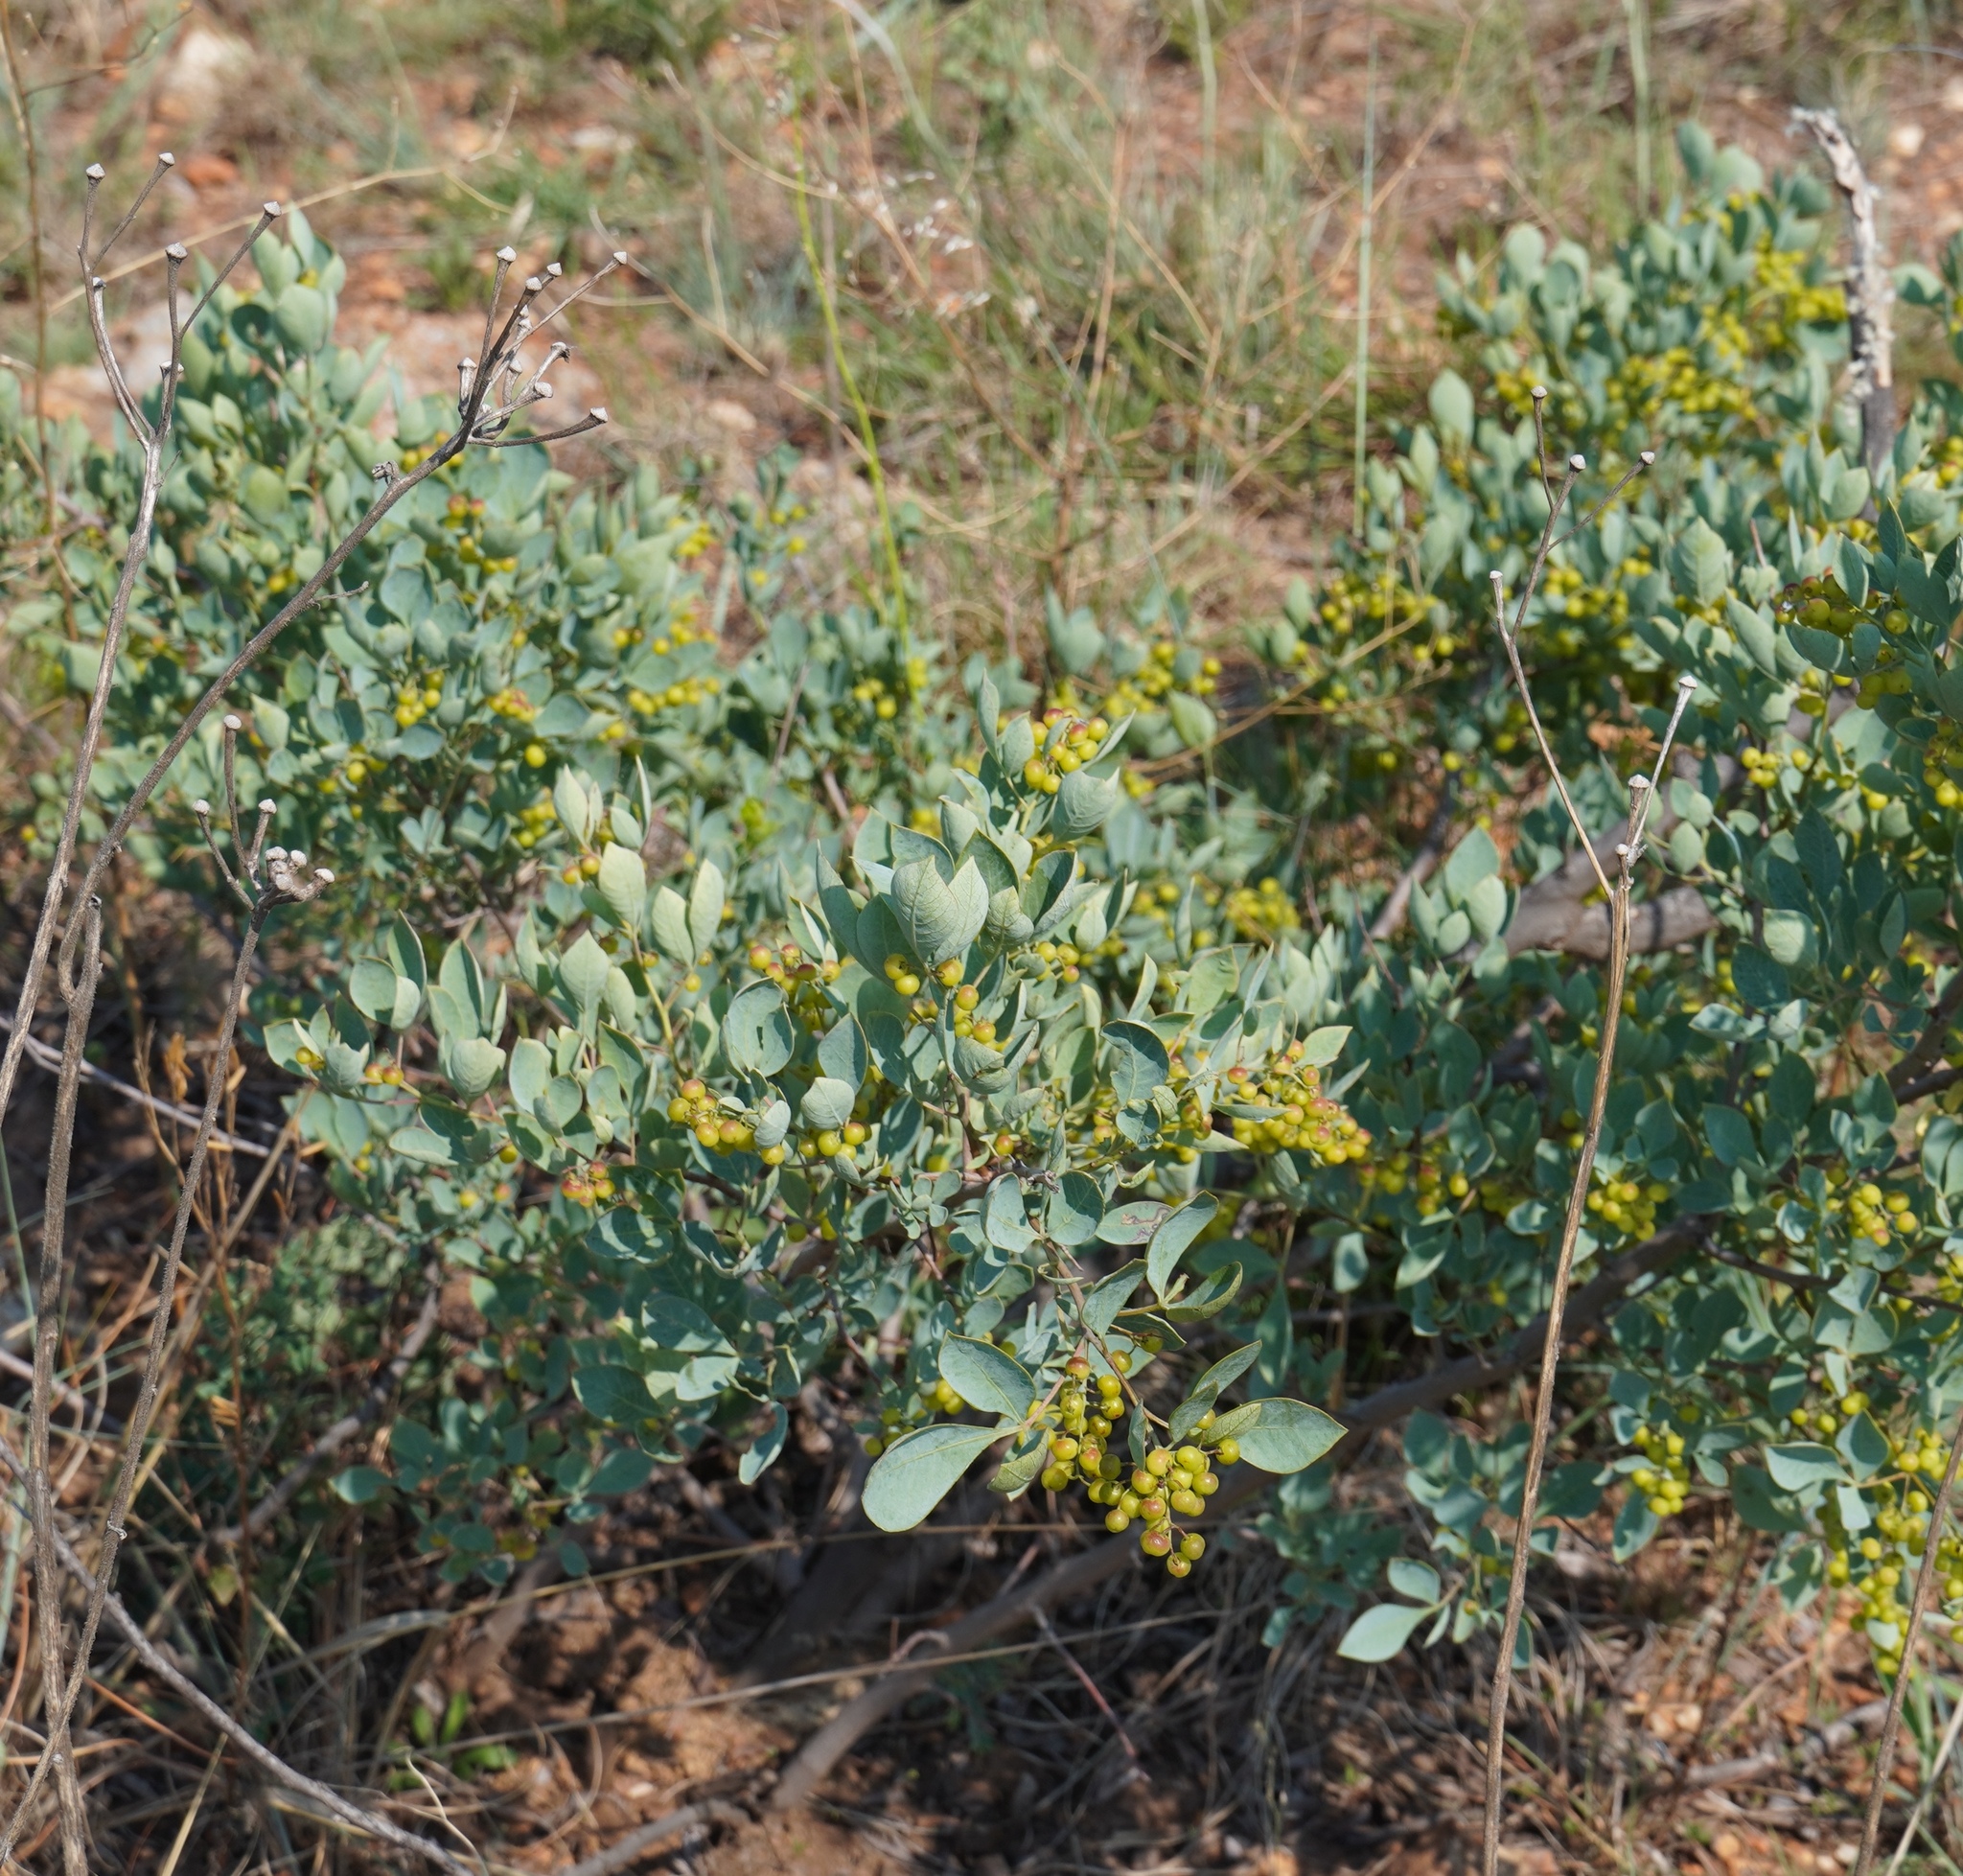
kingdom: Plantae
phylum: Tracheophyta
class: Magnoliopsida
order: Sapindales
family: Anacardiaceae
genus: Searsia
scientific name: Searsia zeyheri
